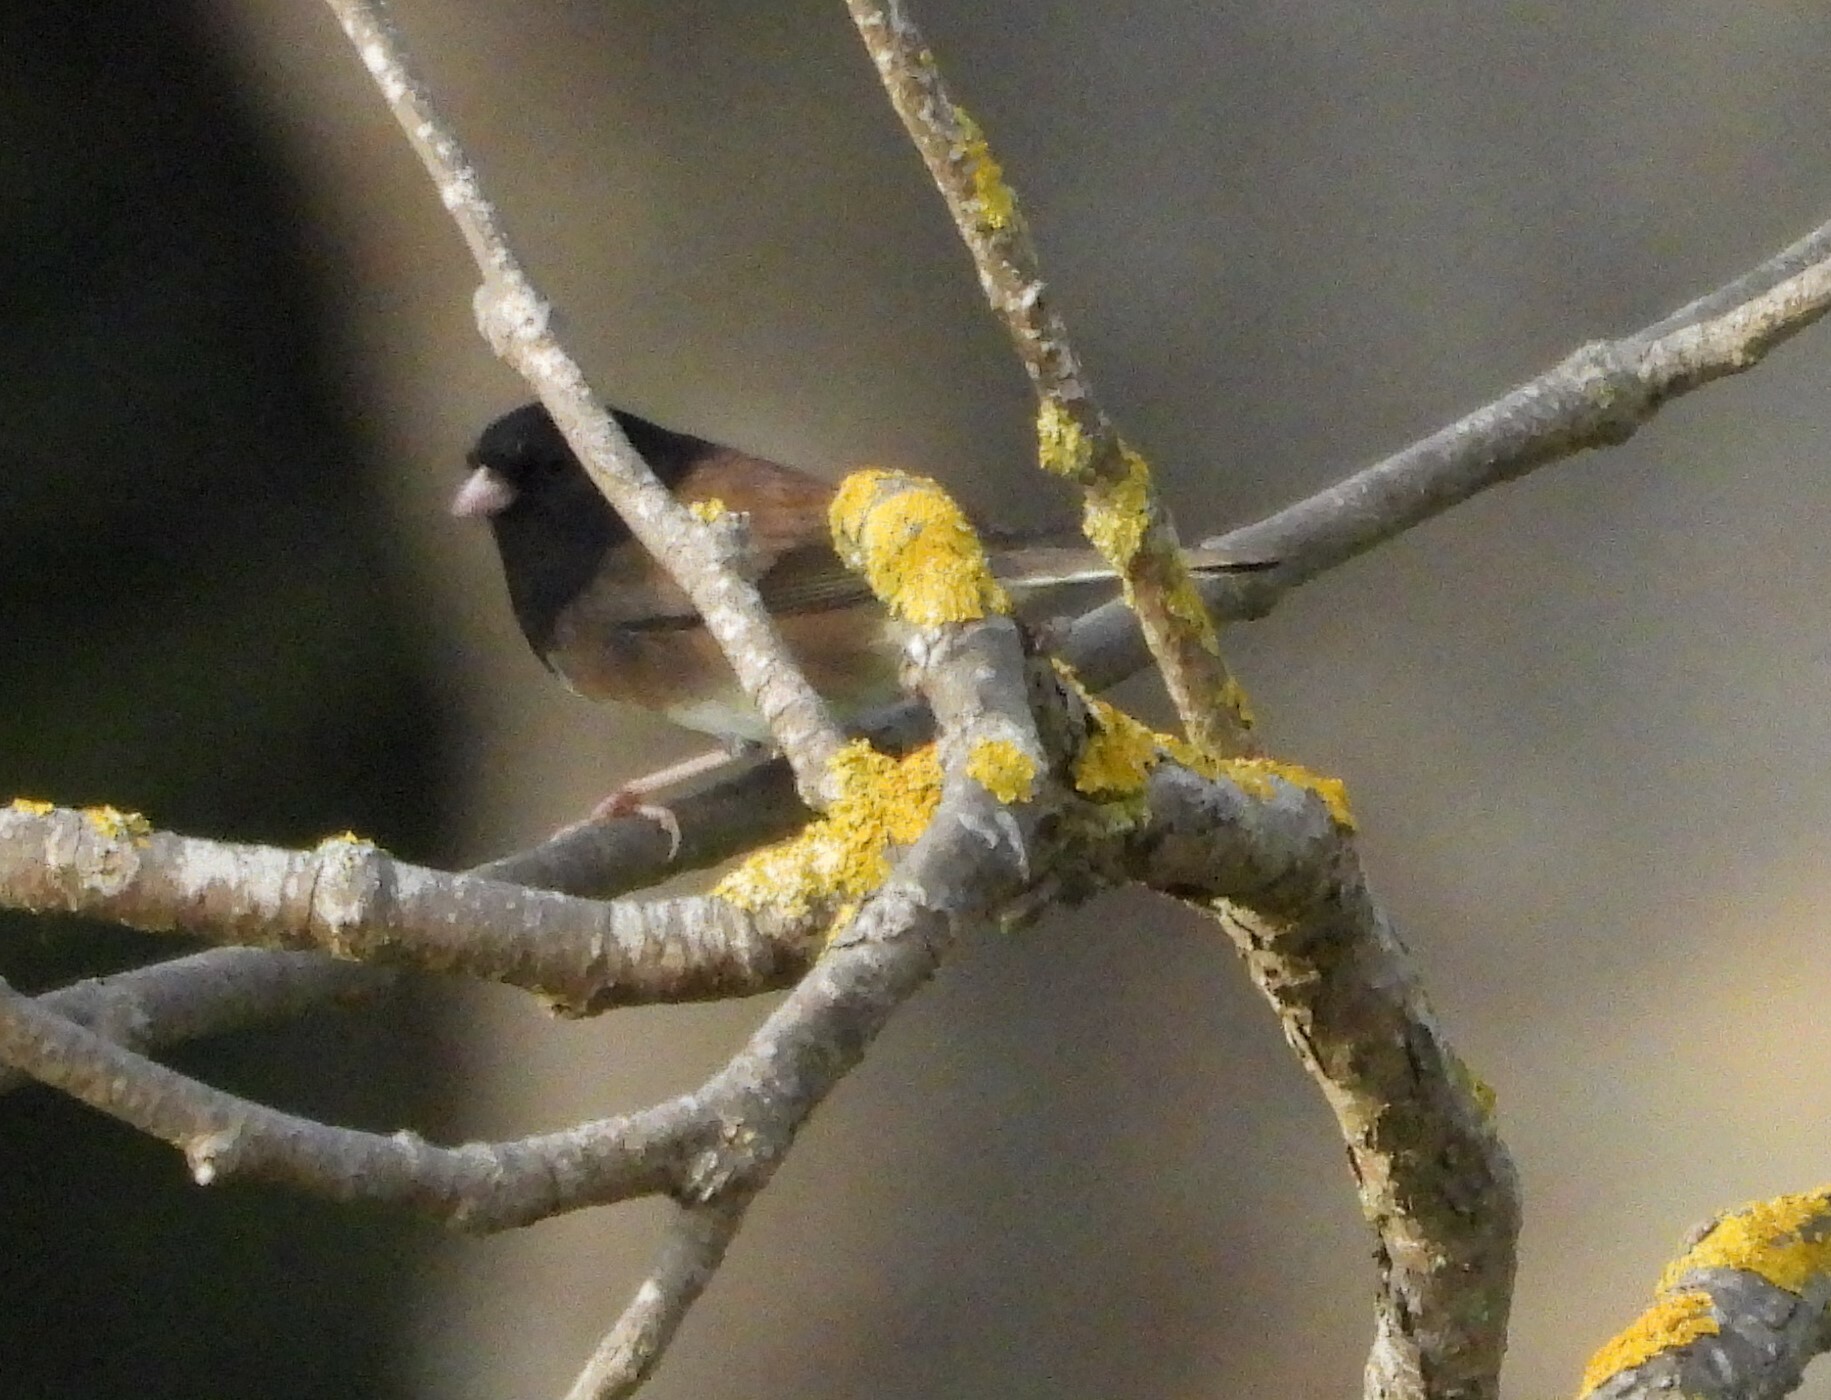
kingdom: Animalia
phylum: Chordata
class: Aves
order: Passeriformes
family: Passerellidae
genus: Junco
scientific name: Junco hyemalis
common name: Dark-eyed junco
